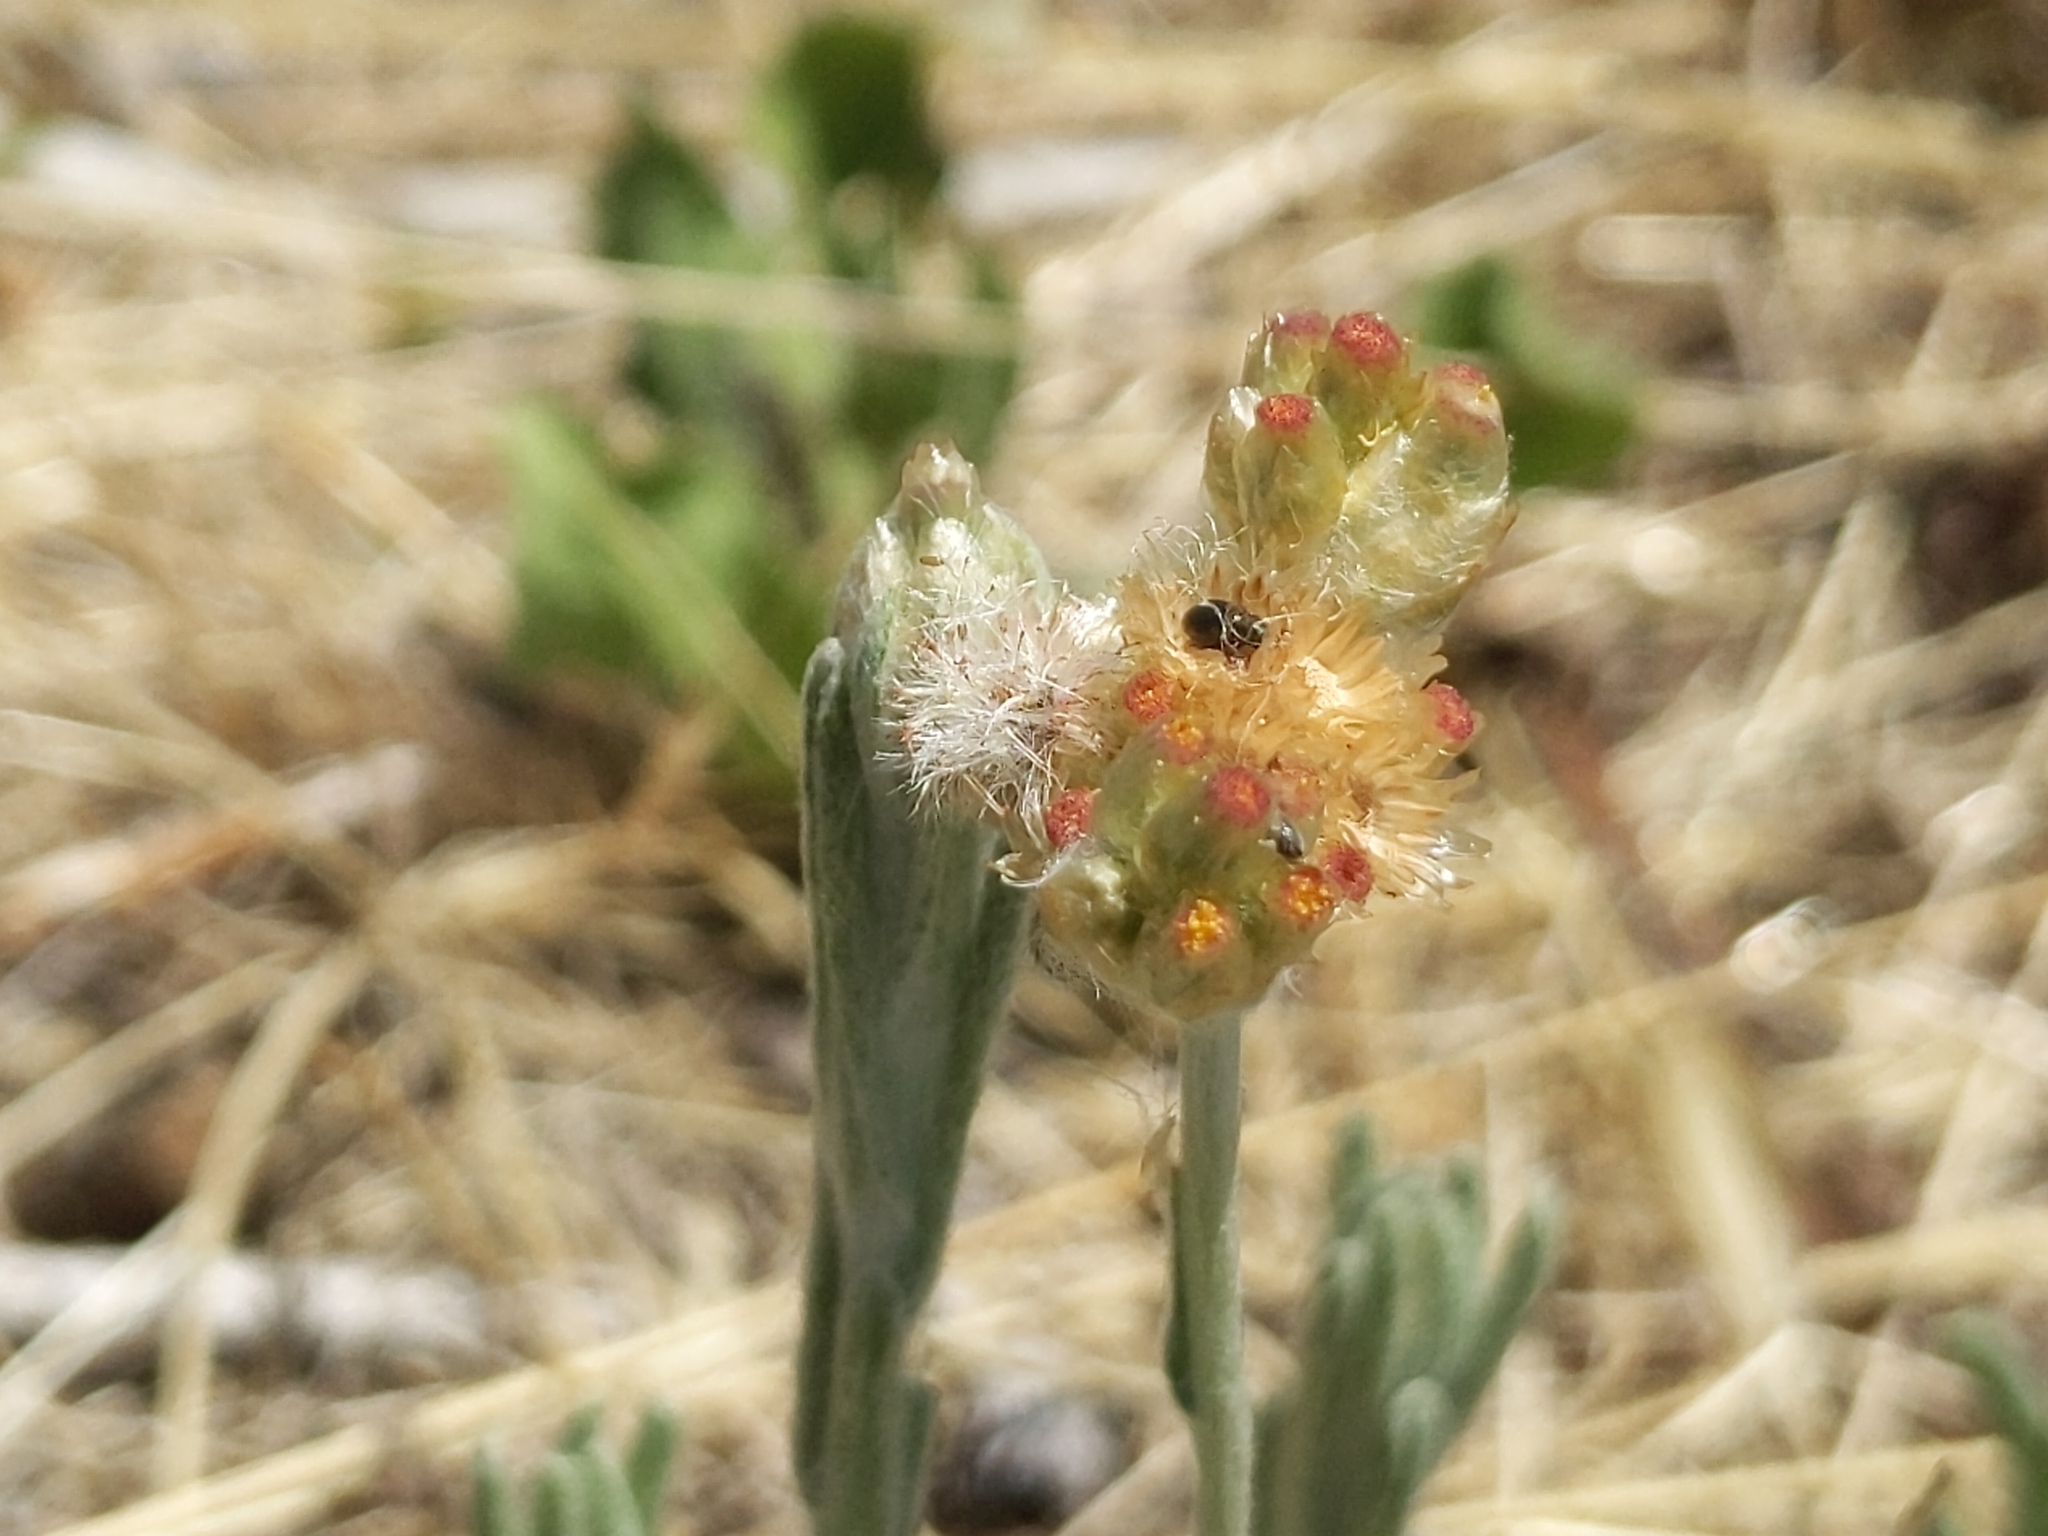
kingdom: Plantae
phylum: Tracheophyta
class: Magnoliopsida
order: Asterales
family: Asteraceae
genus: Helichrysum
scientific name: Helichrysum luteoalbum
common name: Daisy
